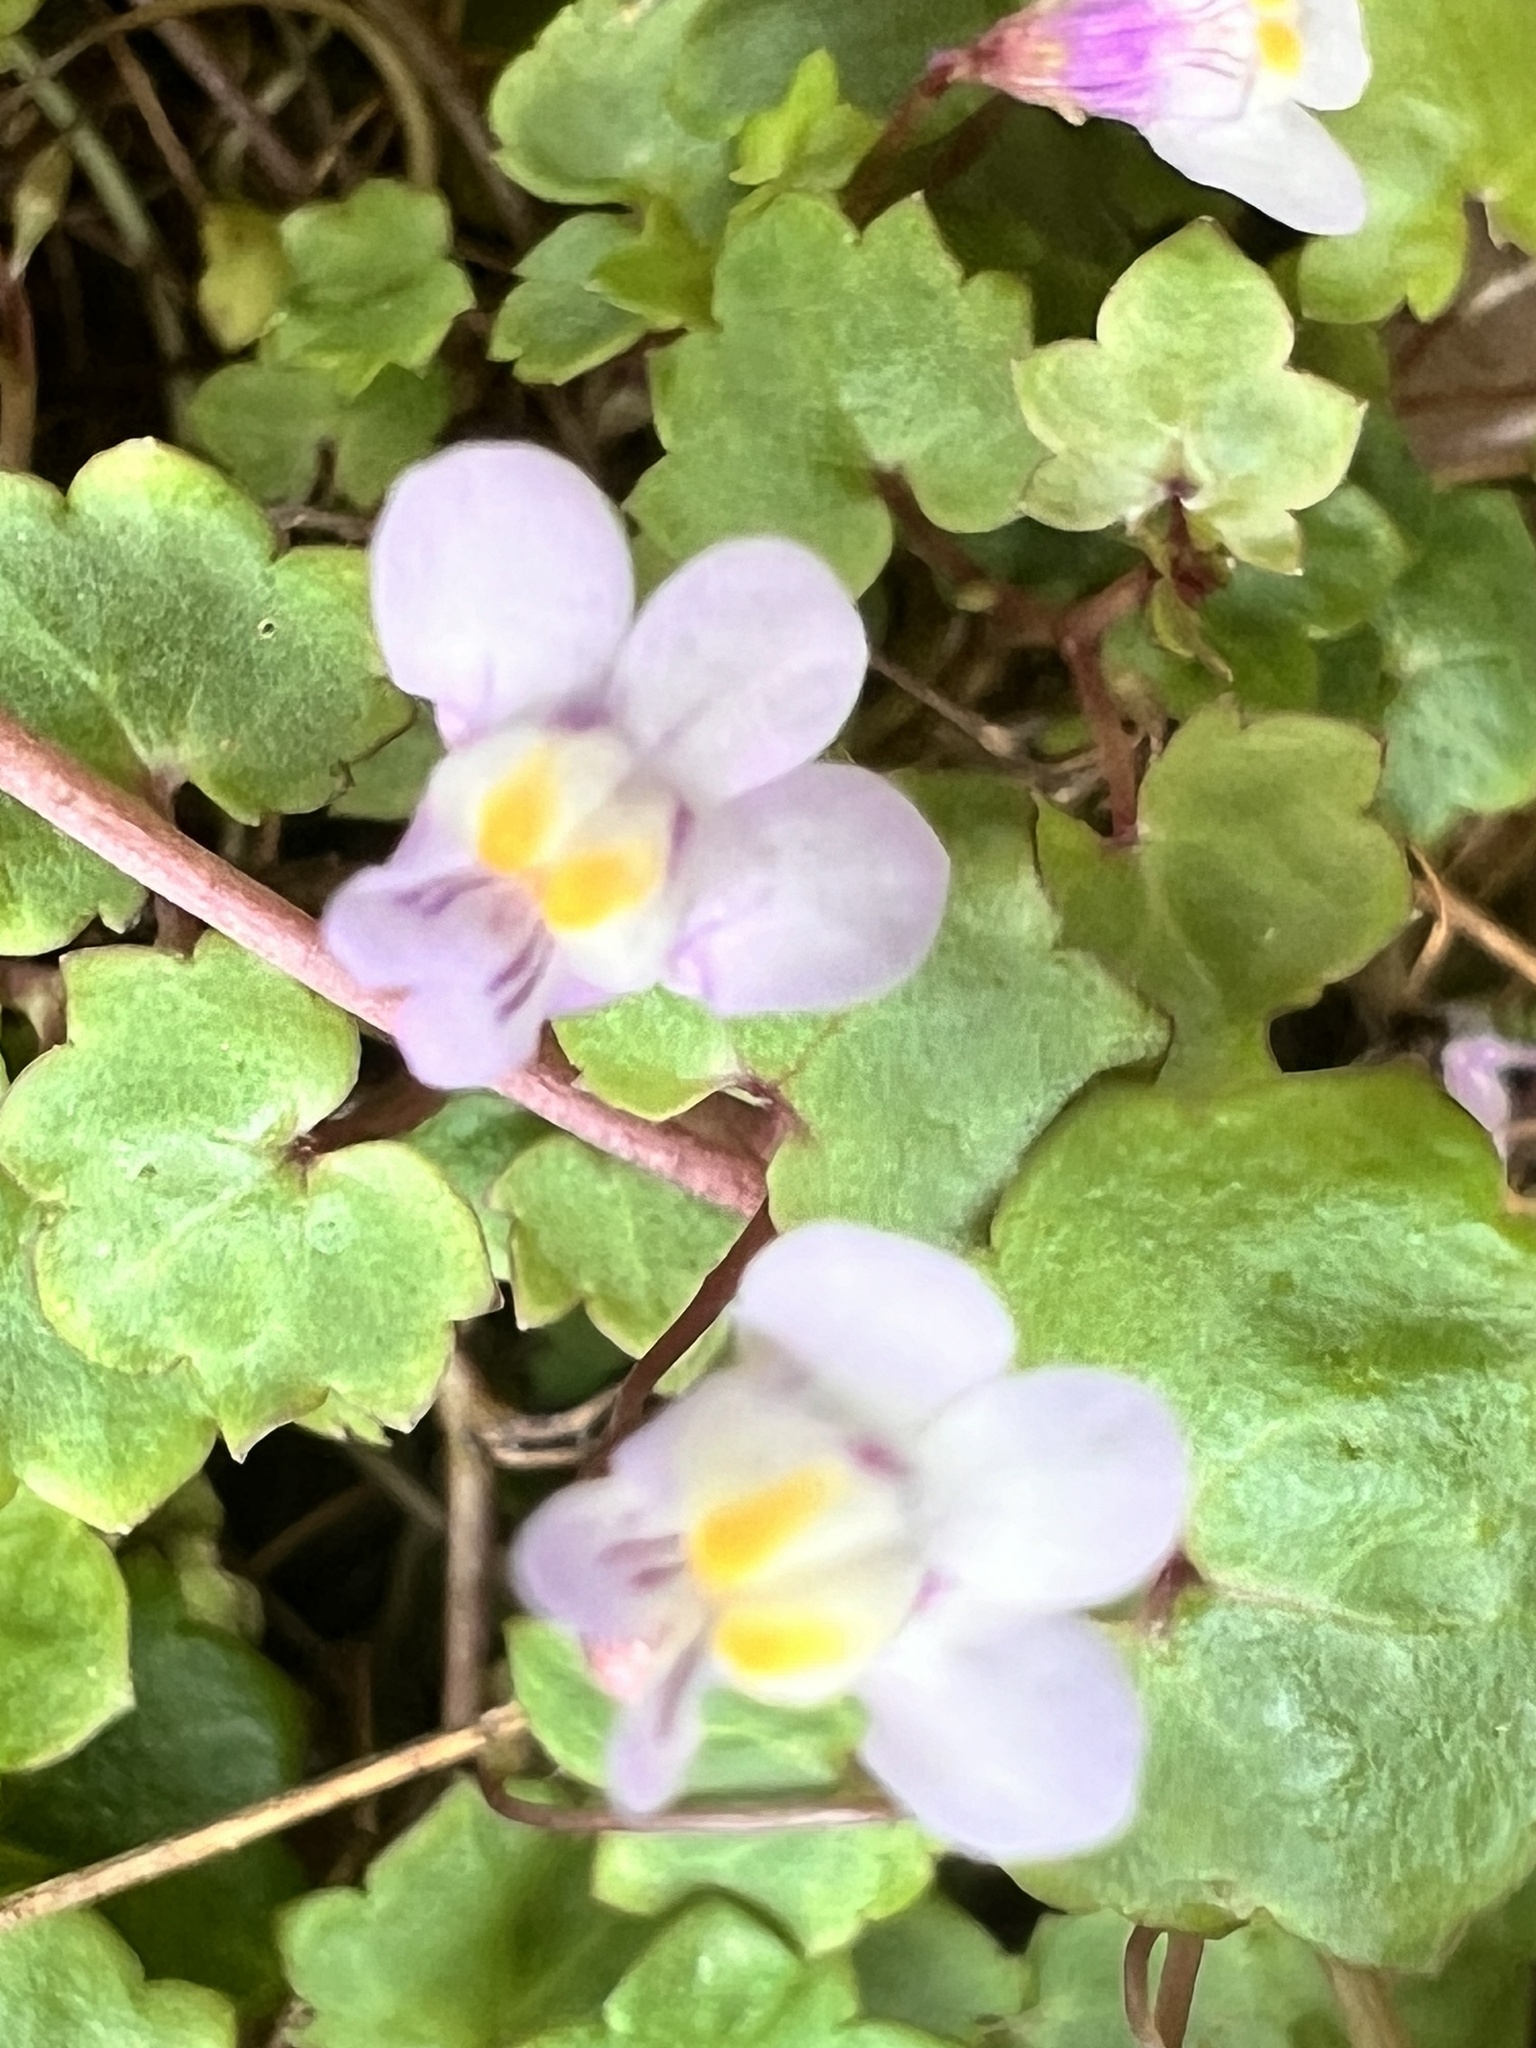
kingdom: Plantae
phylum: Tracheophyta
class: Magnoliopsida
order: Lamiales
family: Plantaginaceae
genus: Cymbalaria
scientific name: Cymbalaria muralis
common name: Ivy-leaved toadflax
